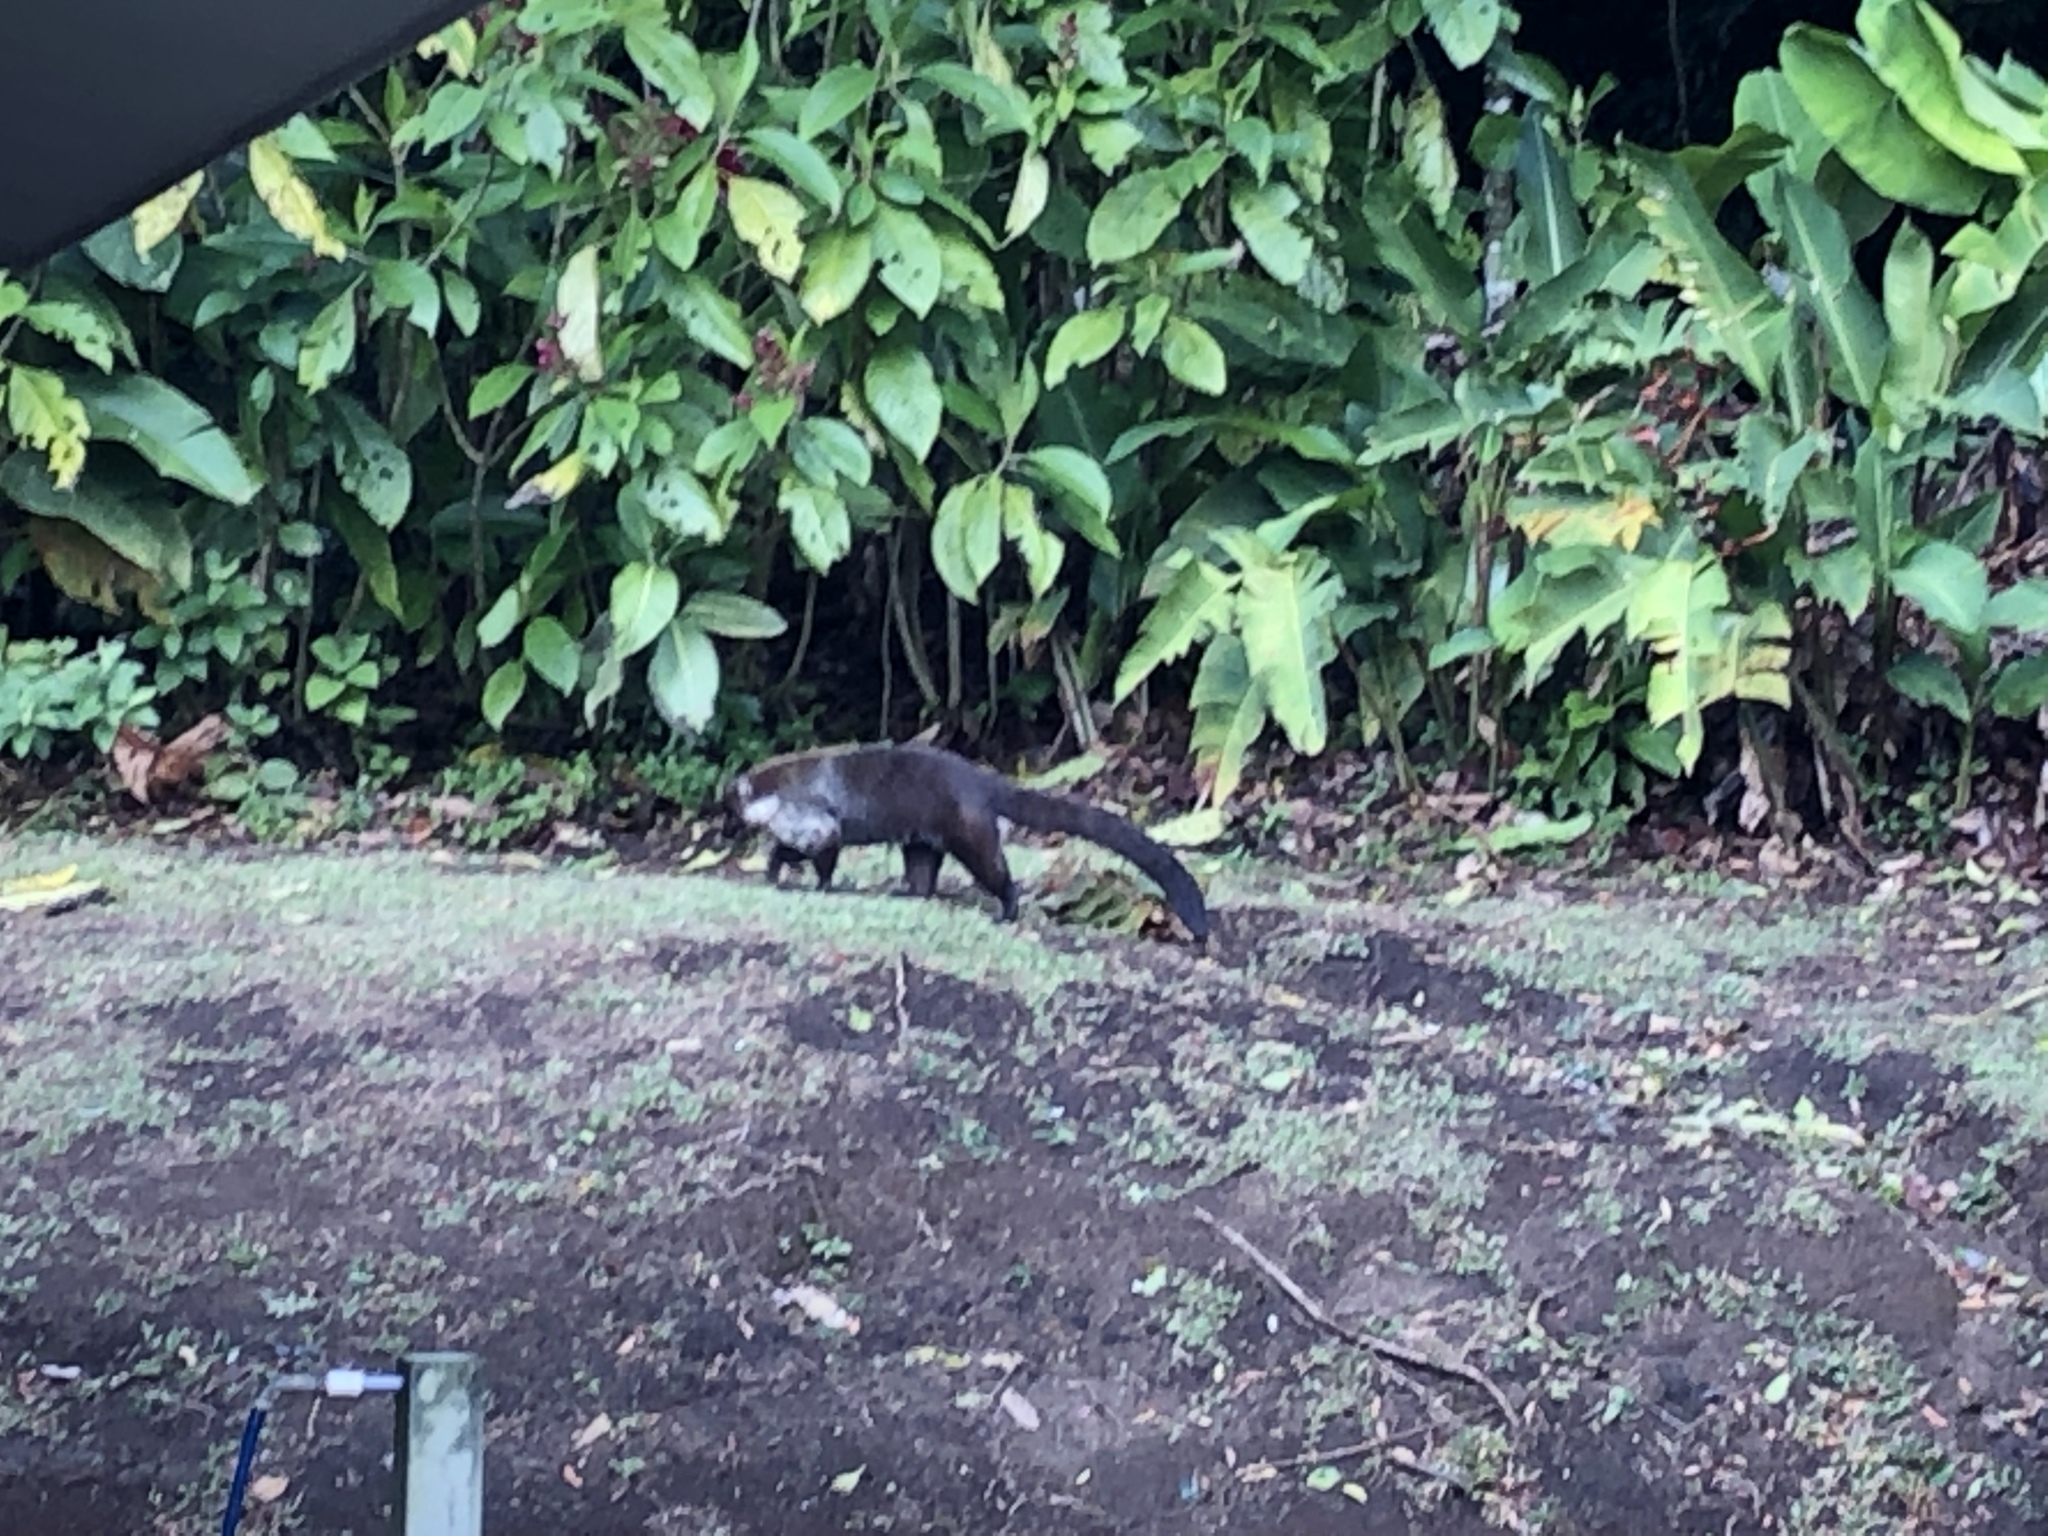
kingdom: Animalia
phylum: Chordata
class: Mammalia
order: Carnivora
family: Procyonidae
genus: Nasua
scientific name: Nasua narica
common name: White-nosed coati
